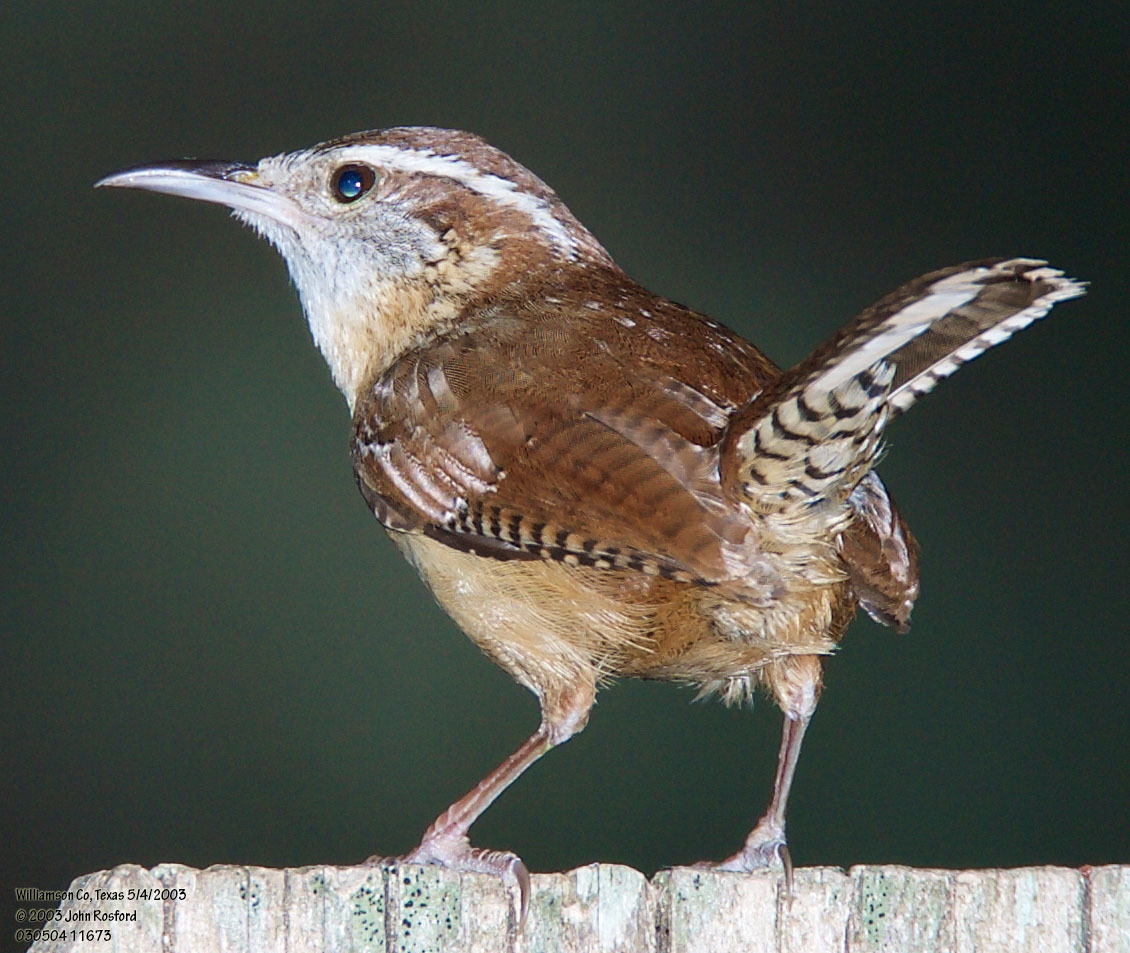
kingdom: Animalia
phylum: Chordata
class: Aves
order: Passeriformes
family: Troglodytidae
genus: Thryothorus
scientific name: Thryothorus ludovicianus
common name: Carolina wren
